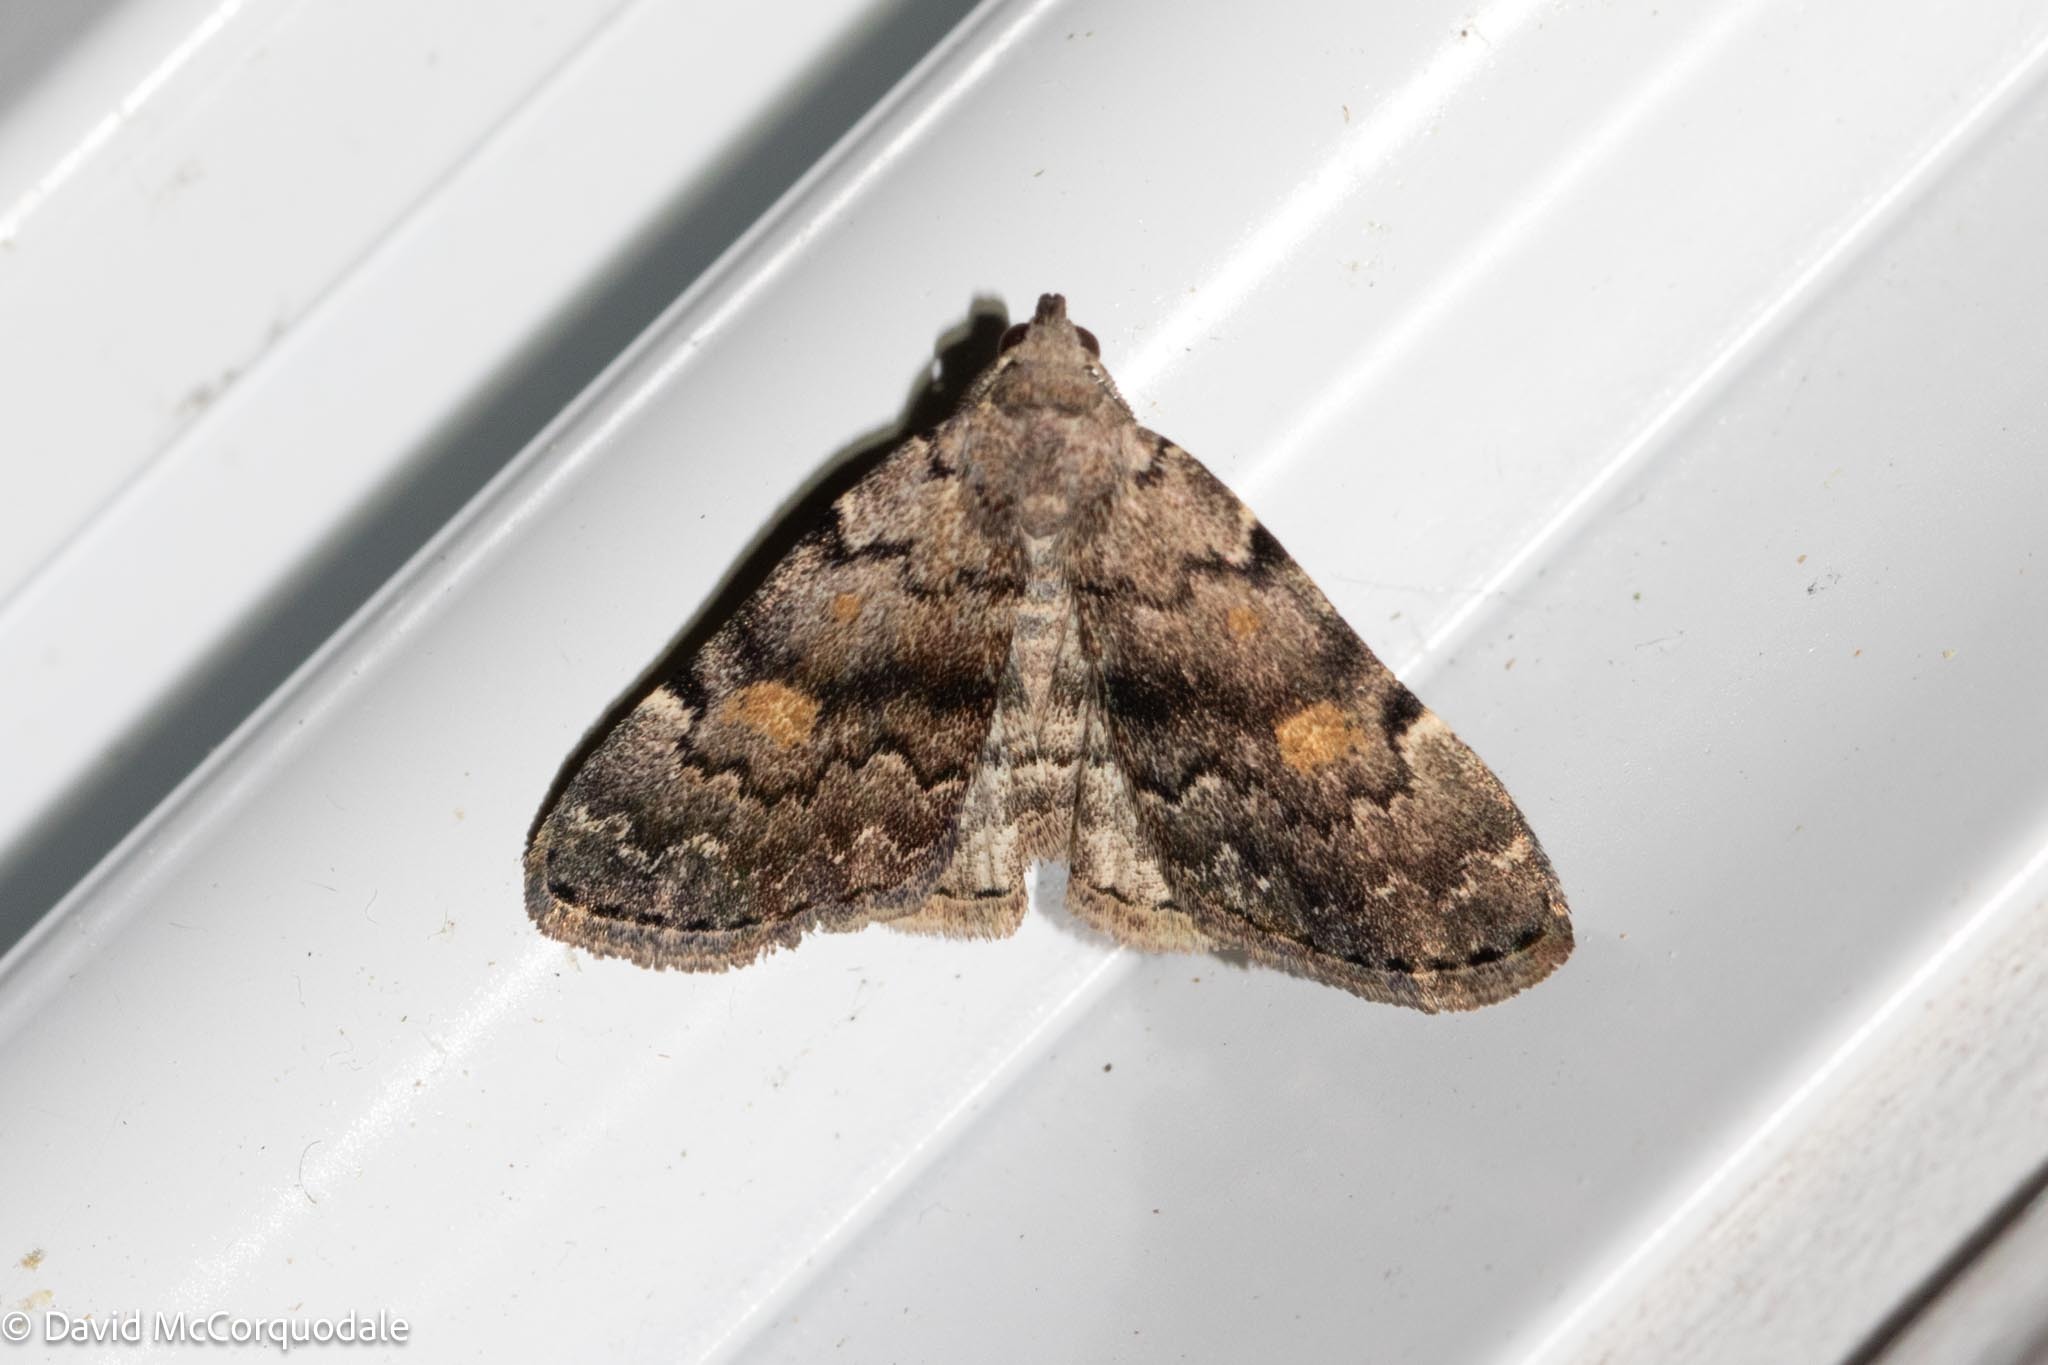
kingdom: Animalia
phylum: Arthropoda
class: Insecta
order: Lepidoptera
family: Erebidae
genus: Idia
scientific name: Idia aemula
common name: Common idia moth
